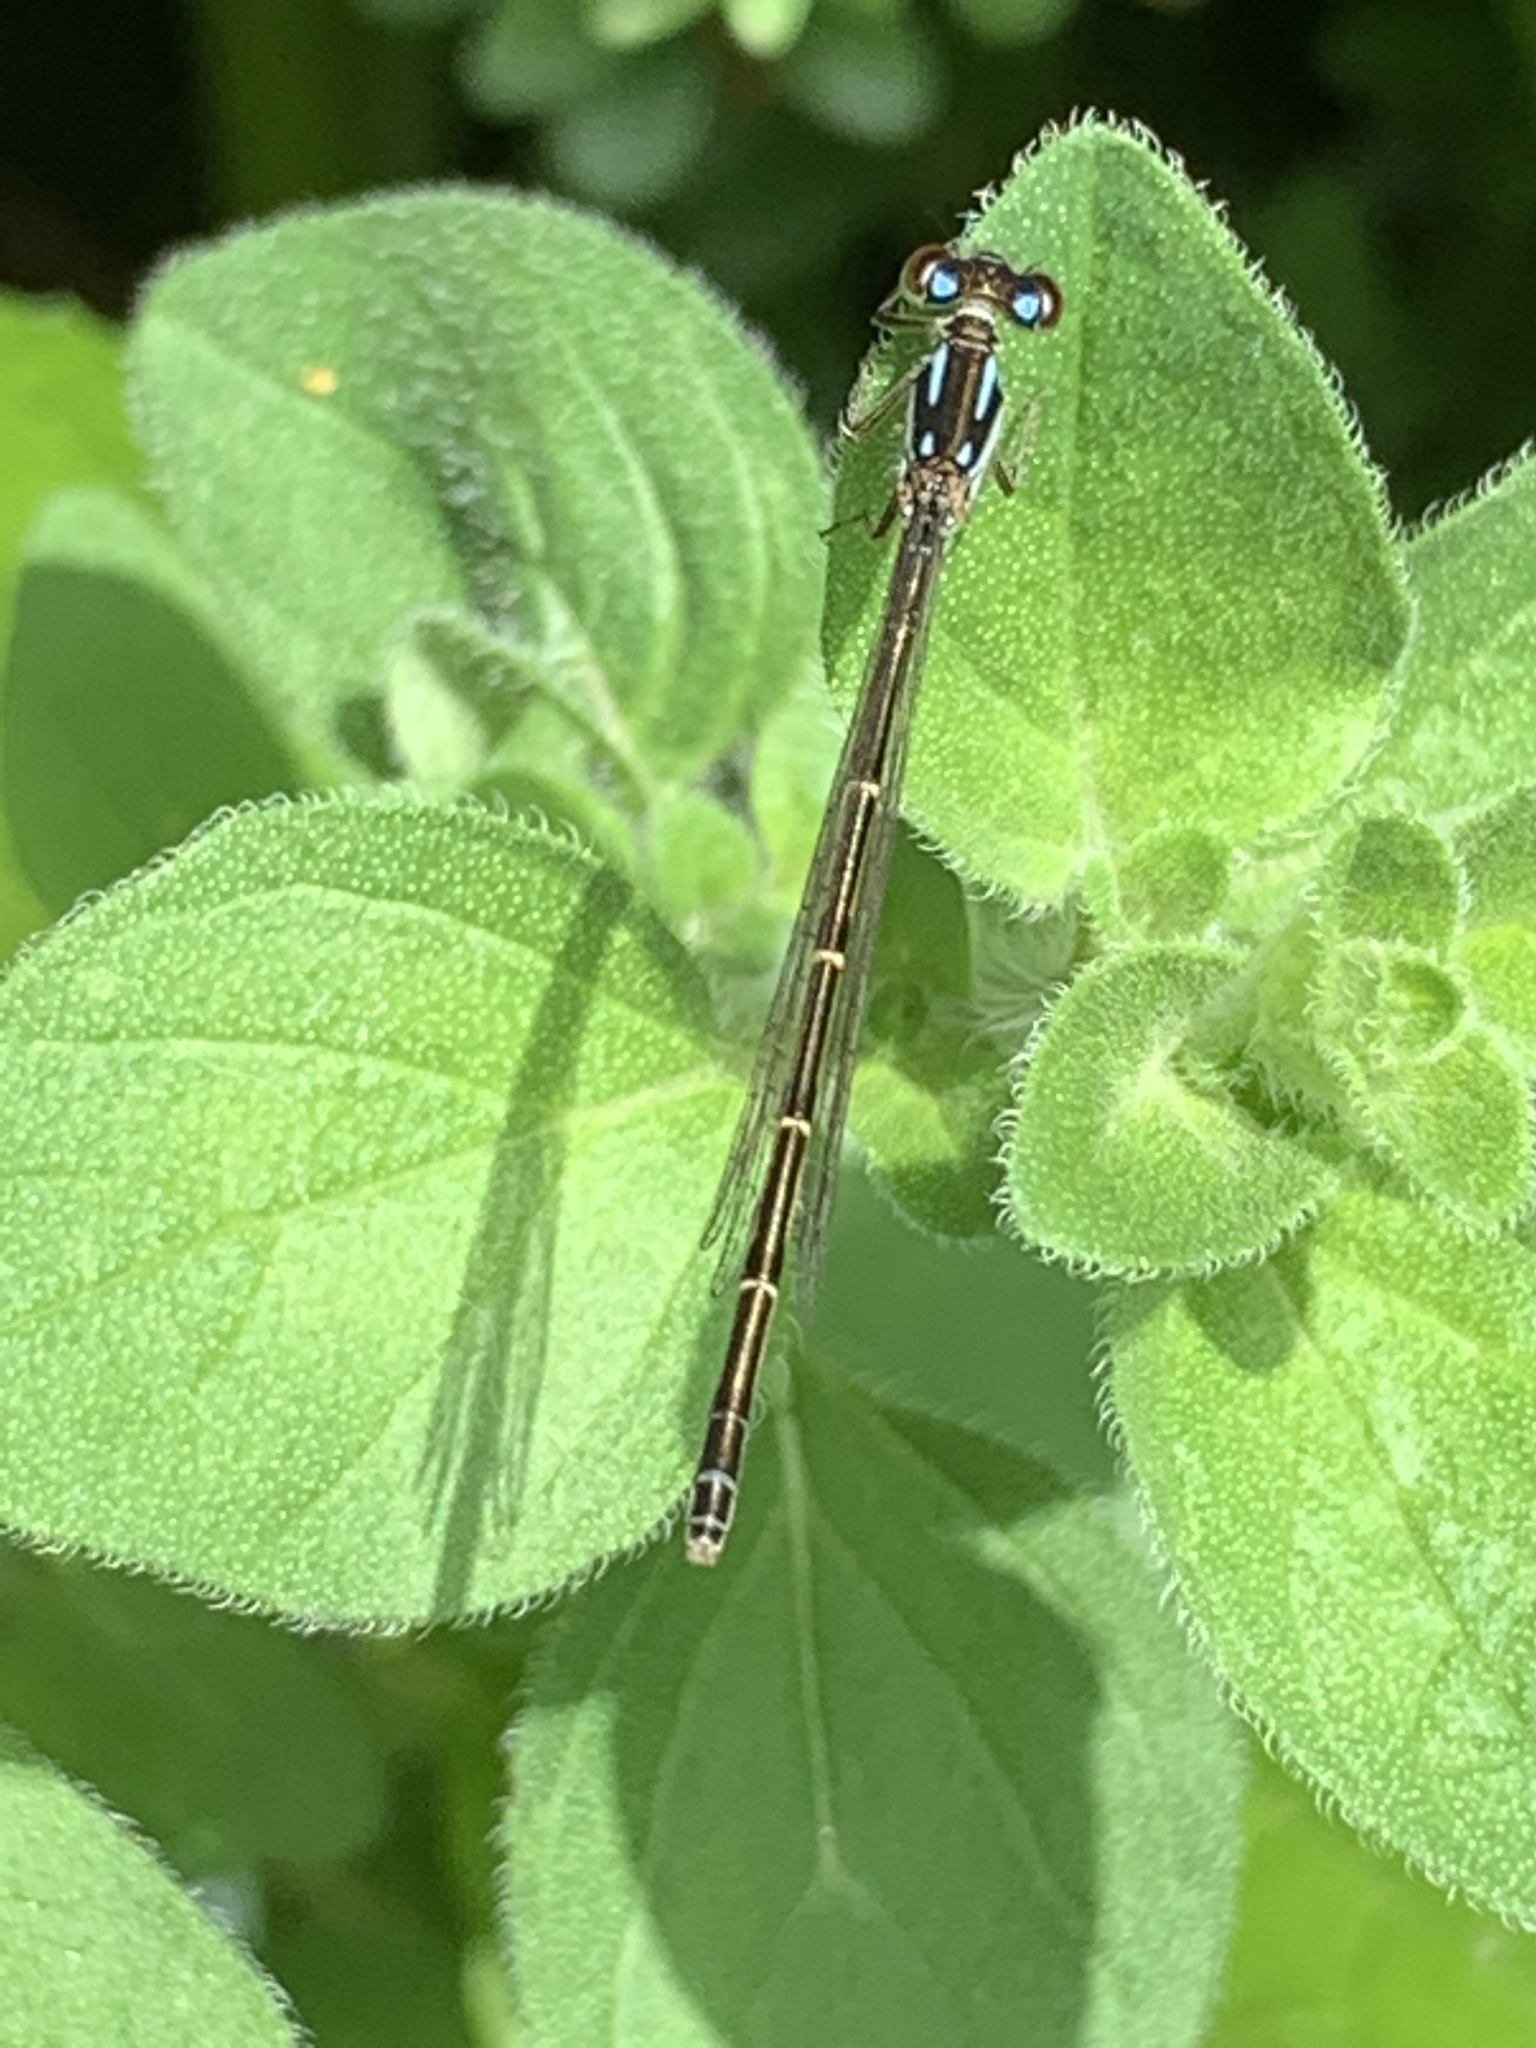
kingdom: Animalia
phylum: Arthropoda
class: Insecta
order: Odonata
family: Coenagrionidae
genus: Ischnura
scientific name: Ischnura posita
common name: Fragile forktail
